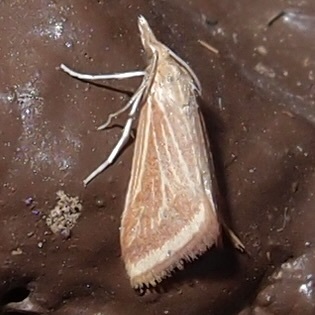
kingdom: Animalia
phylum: Arthropoda
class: Insecta
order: Lepidoptera
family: Crambidae
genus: Microtheoris
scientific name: Microtheoris ophionalis
